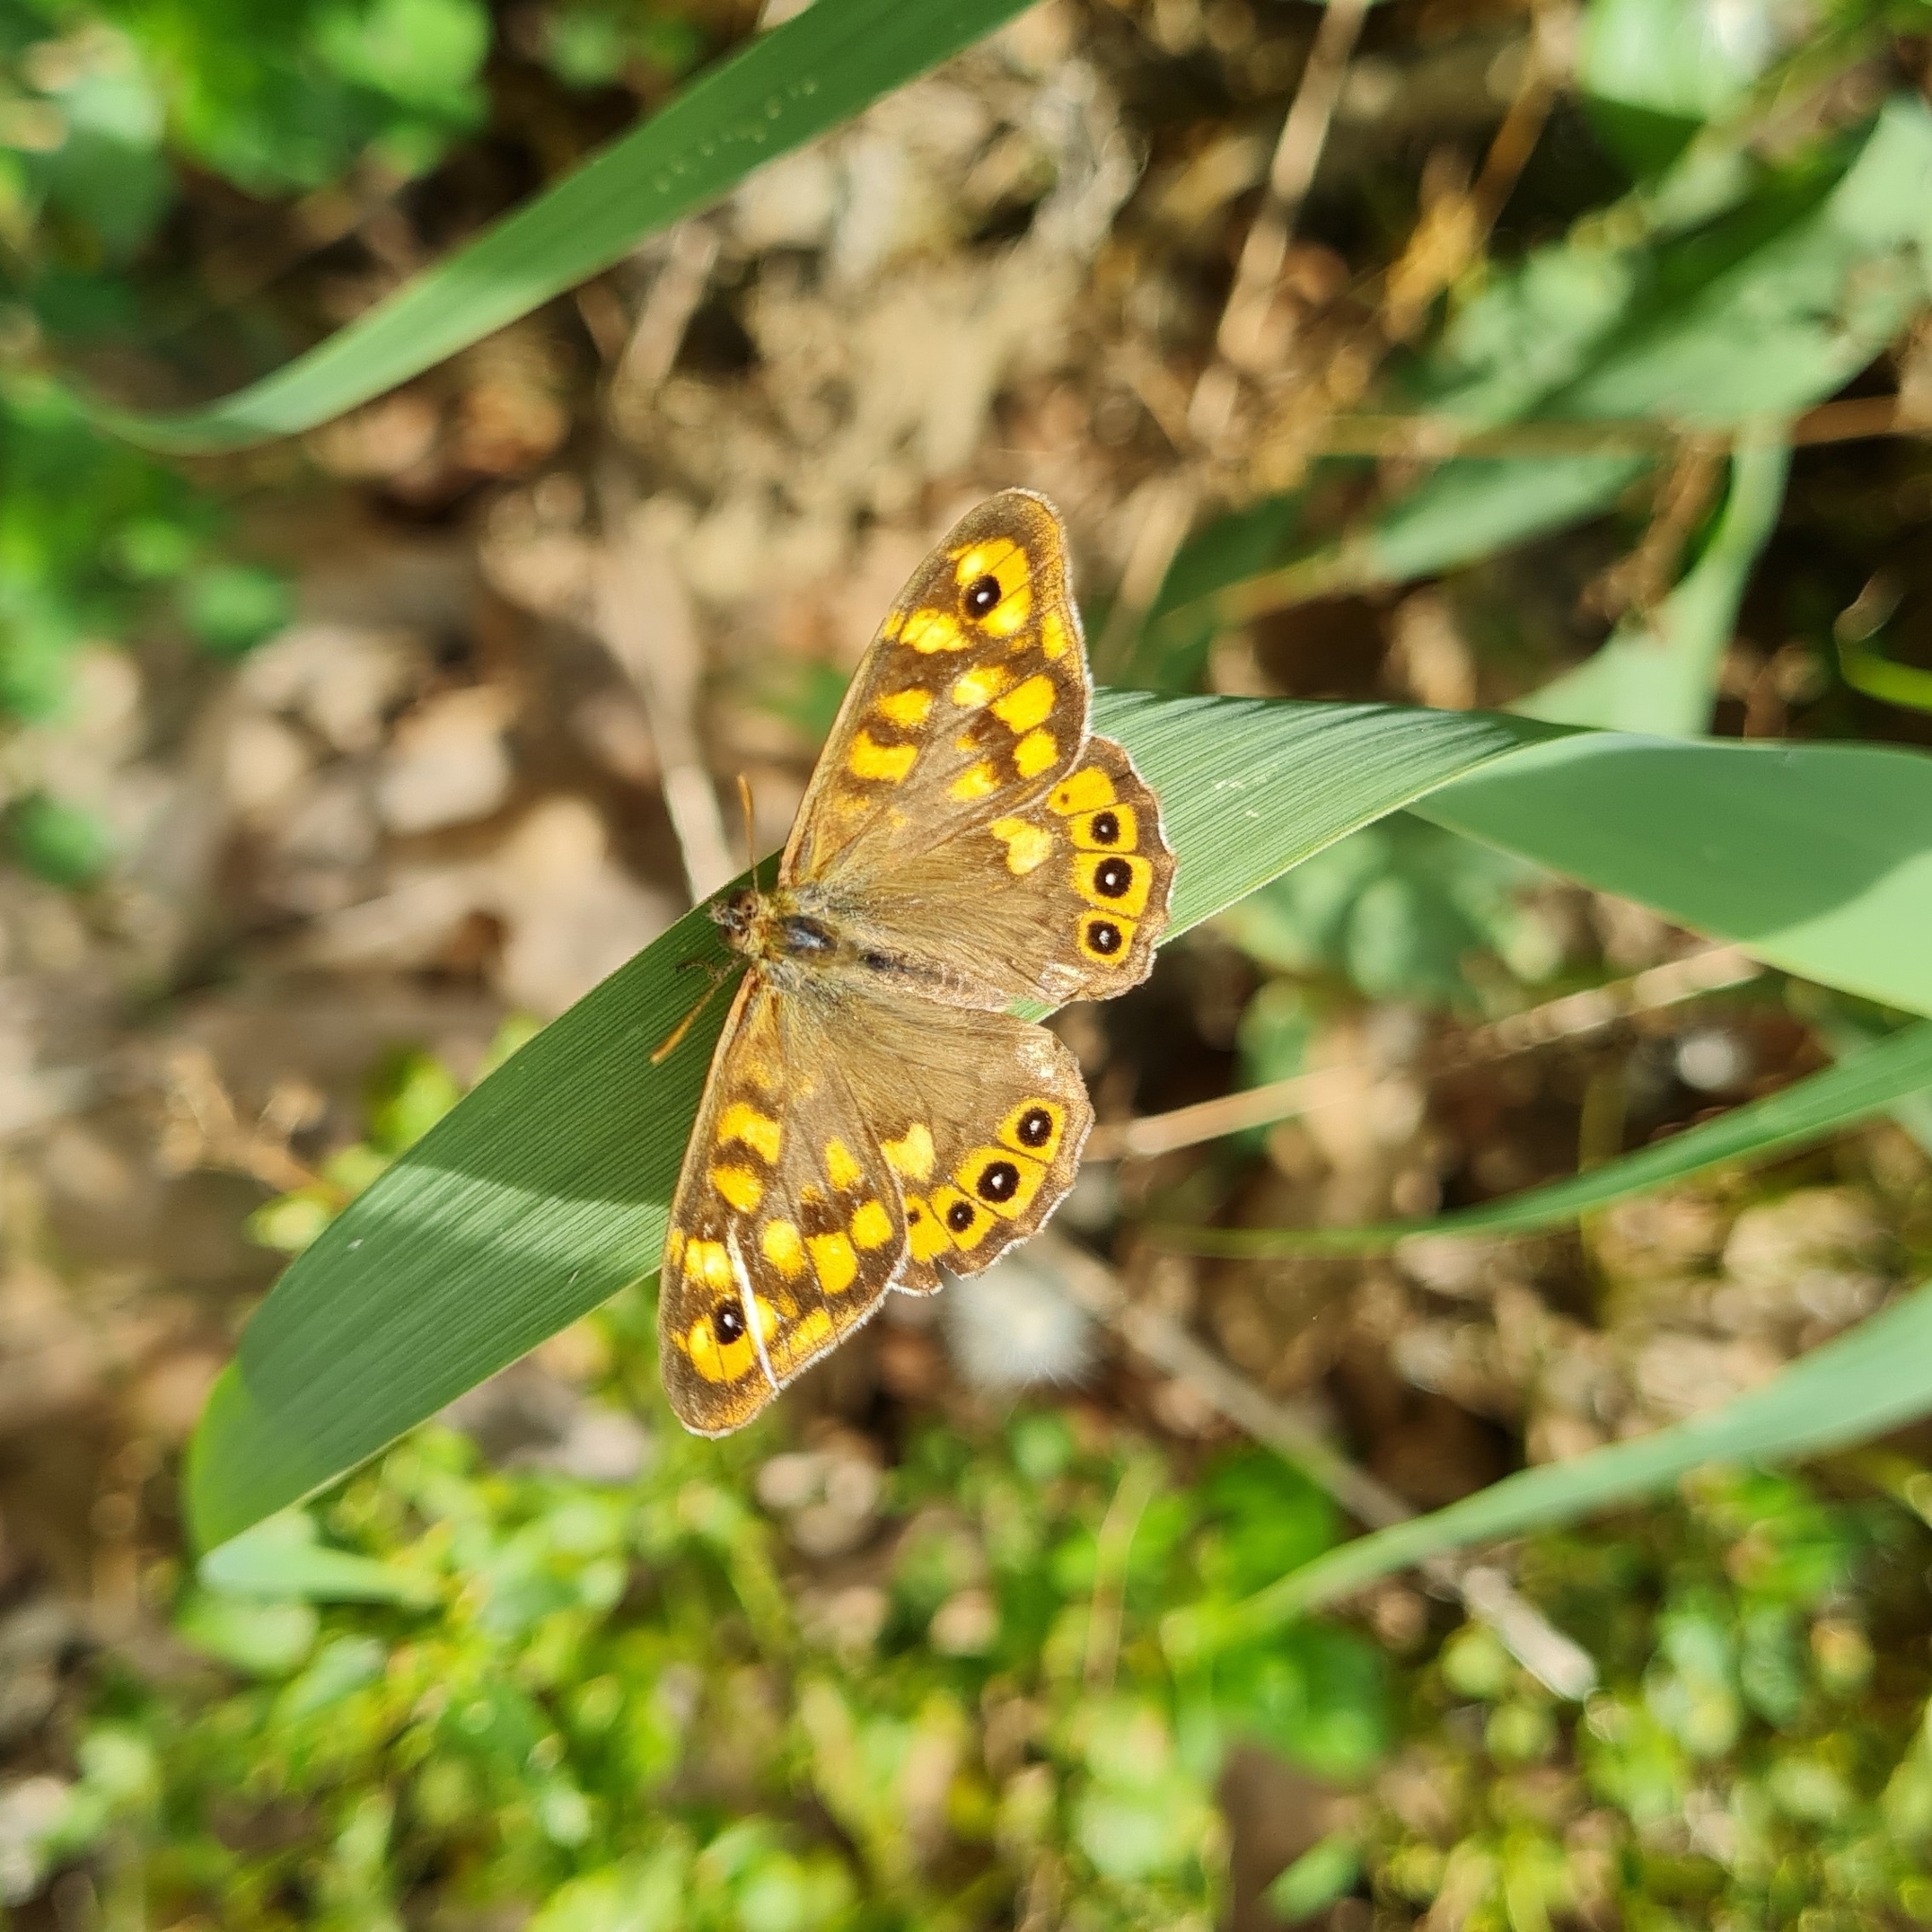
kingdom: Animalia
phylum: Arthropoda
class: Insecta
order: Lepidoptera
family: Nymphalidae
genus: Pararge
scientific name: Pararge aegeria
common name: Speckled wood
